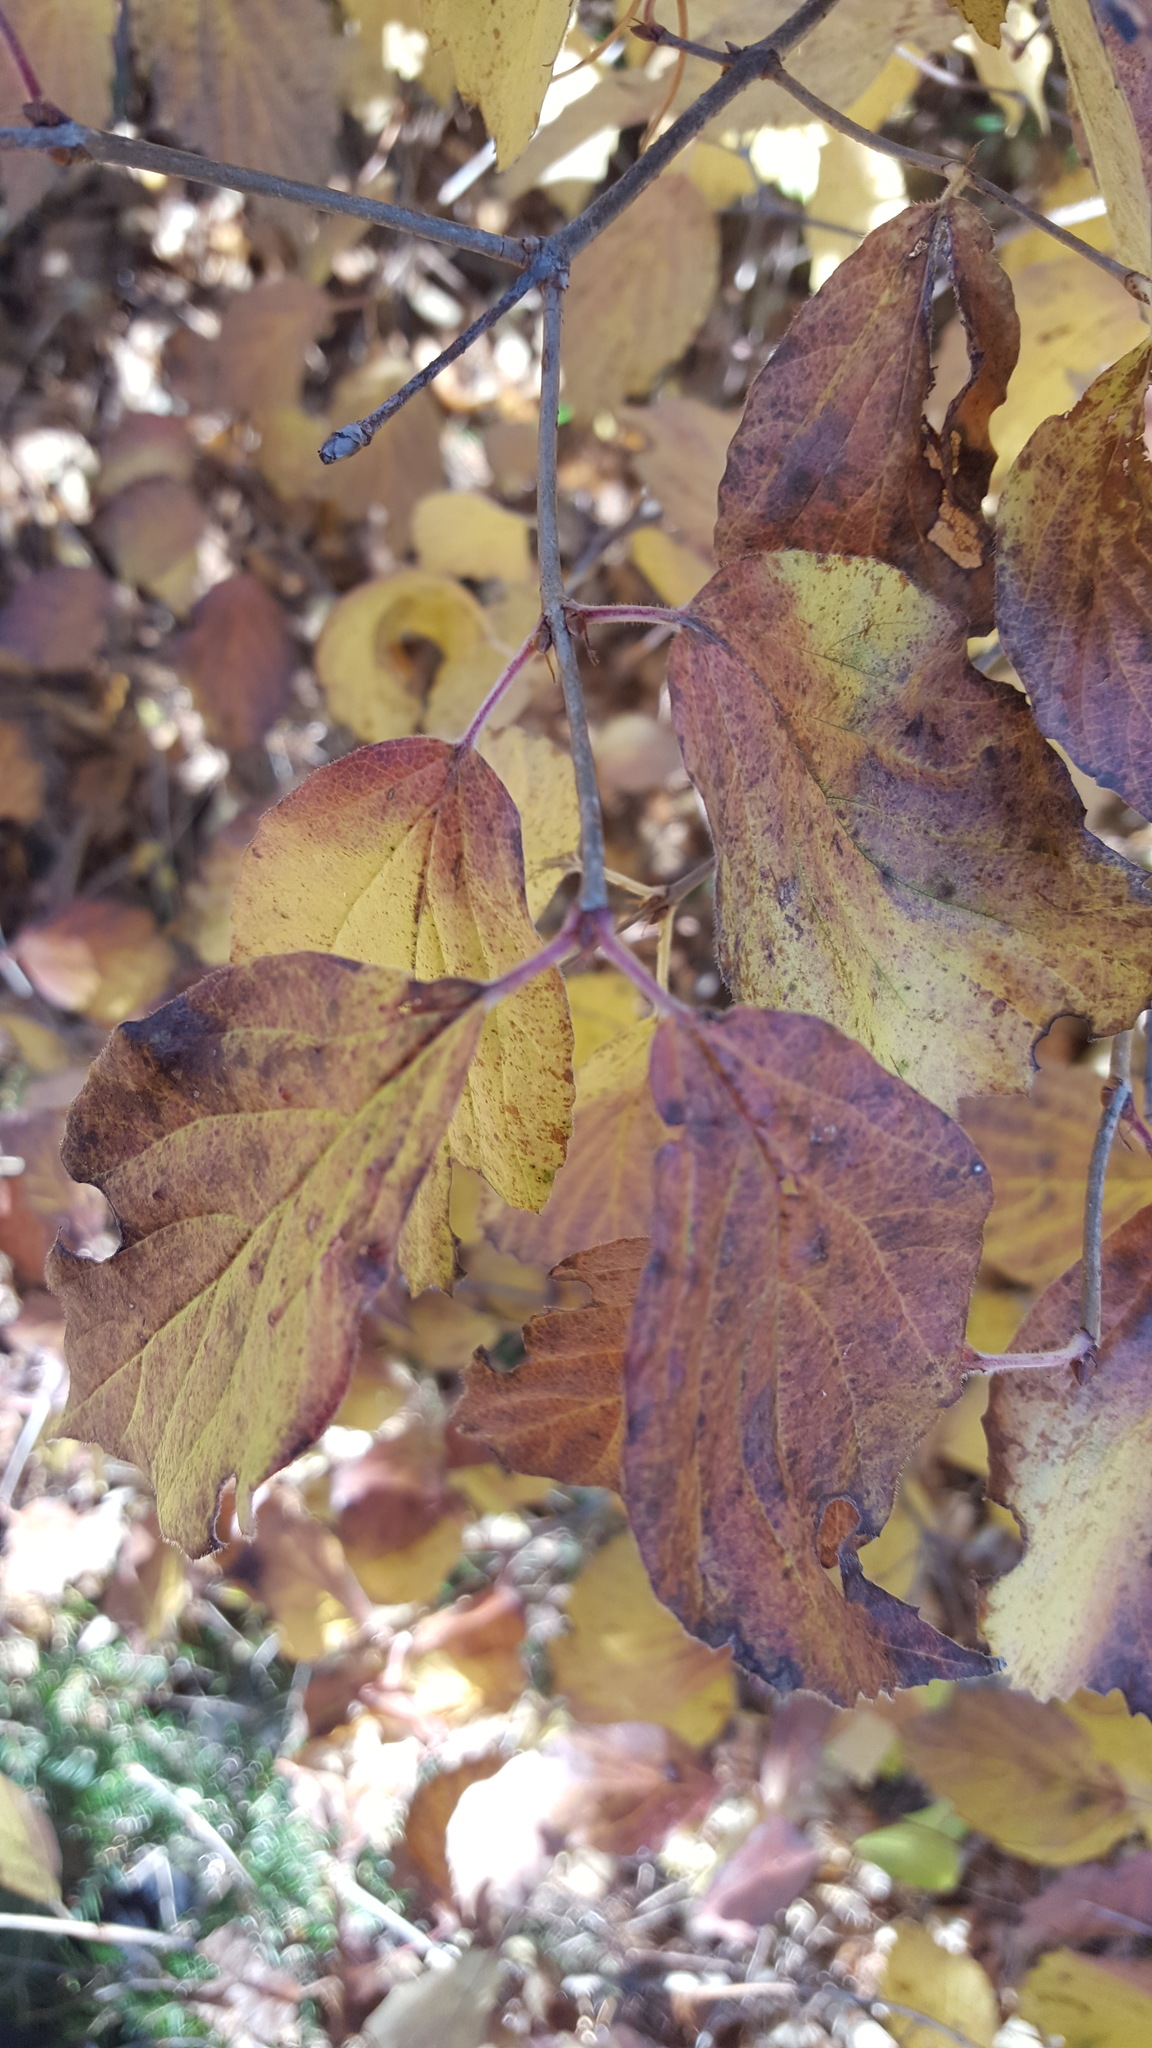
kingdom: Plantae
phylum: Tracheophyta
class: Magnoliopsida
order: Dipsacales
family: Viburnaceae
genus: Viburnum
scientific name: Viburnum rafinesqueanum
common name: Downy arrow-wood
